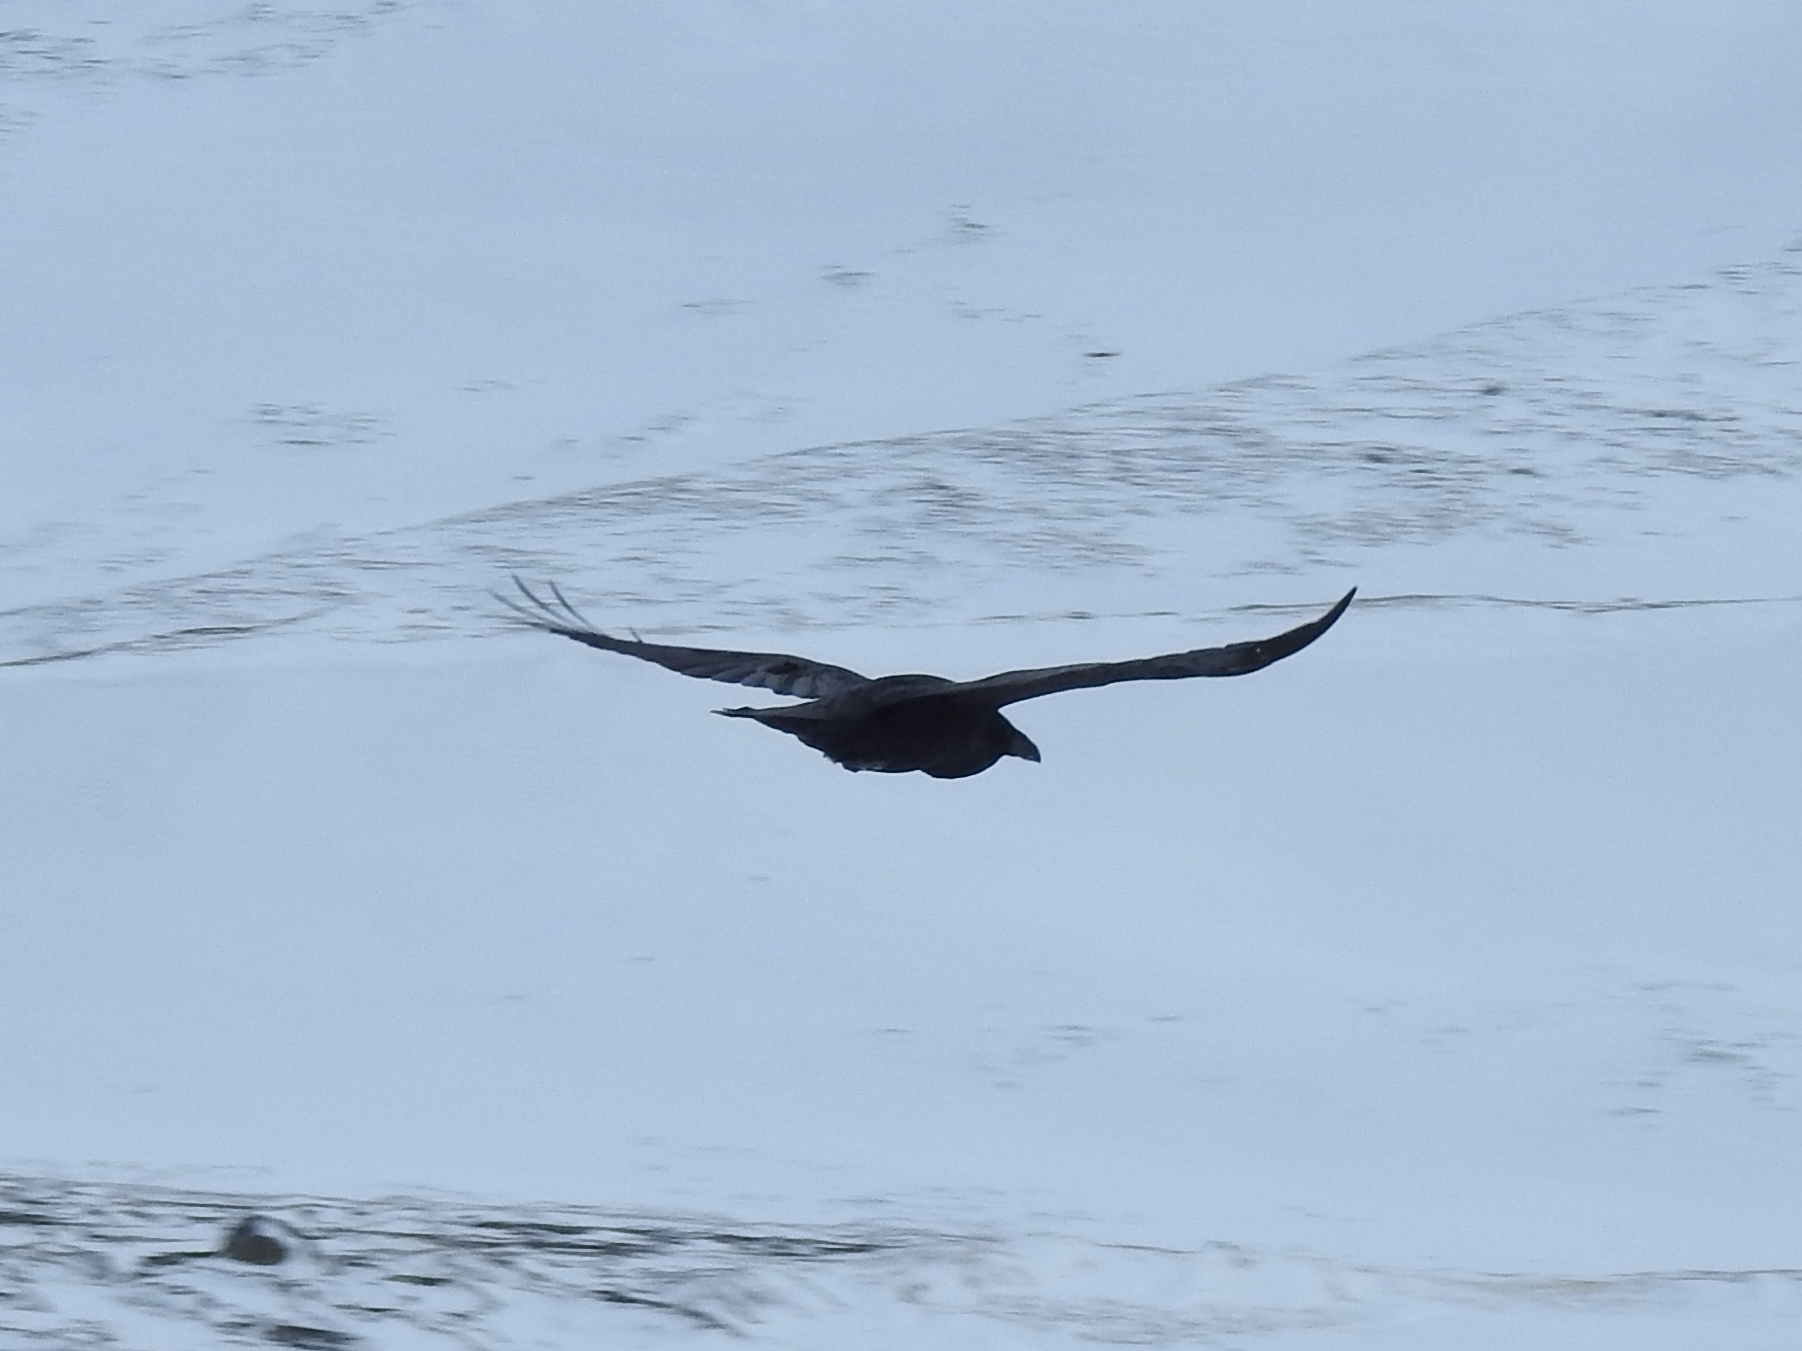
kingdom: Animalia
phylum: Chordata
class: Aves
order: Passeriformes
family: Corvidae
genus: Corvus
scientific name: Corvus corax
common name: Common raven
